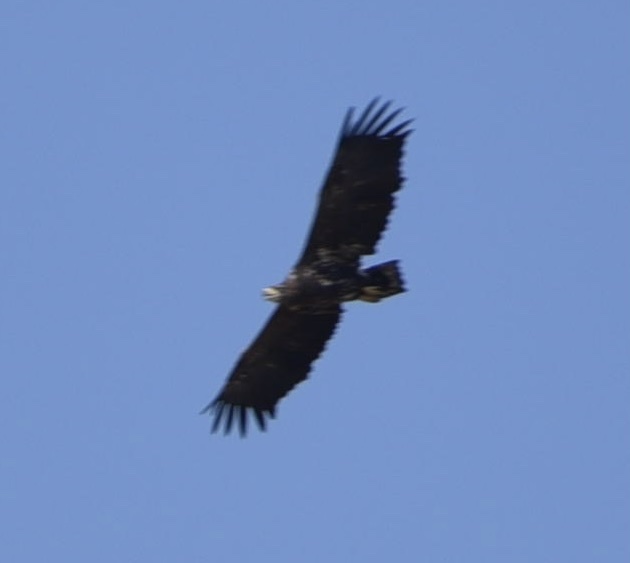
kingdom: Animalia
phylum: Chordata
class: Aves
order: Accipitriformes
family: Accipitridae
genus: Haliaeetus
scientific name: Haliaeetus albicilla
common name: White-tailed eagle
